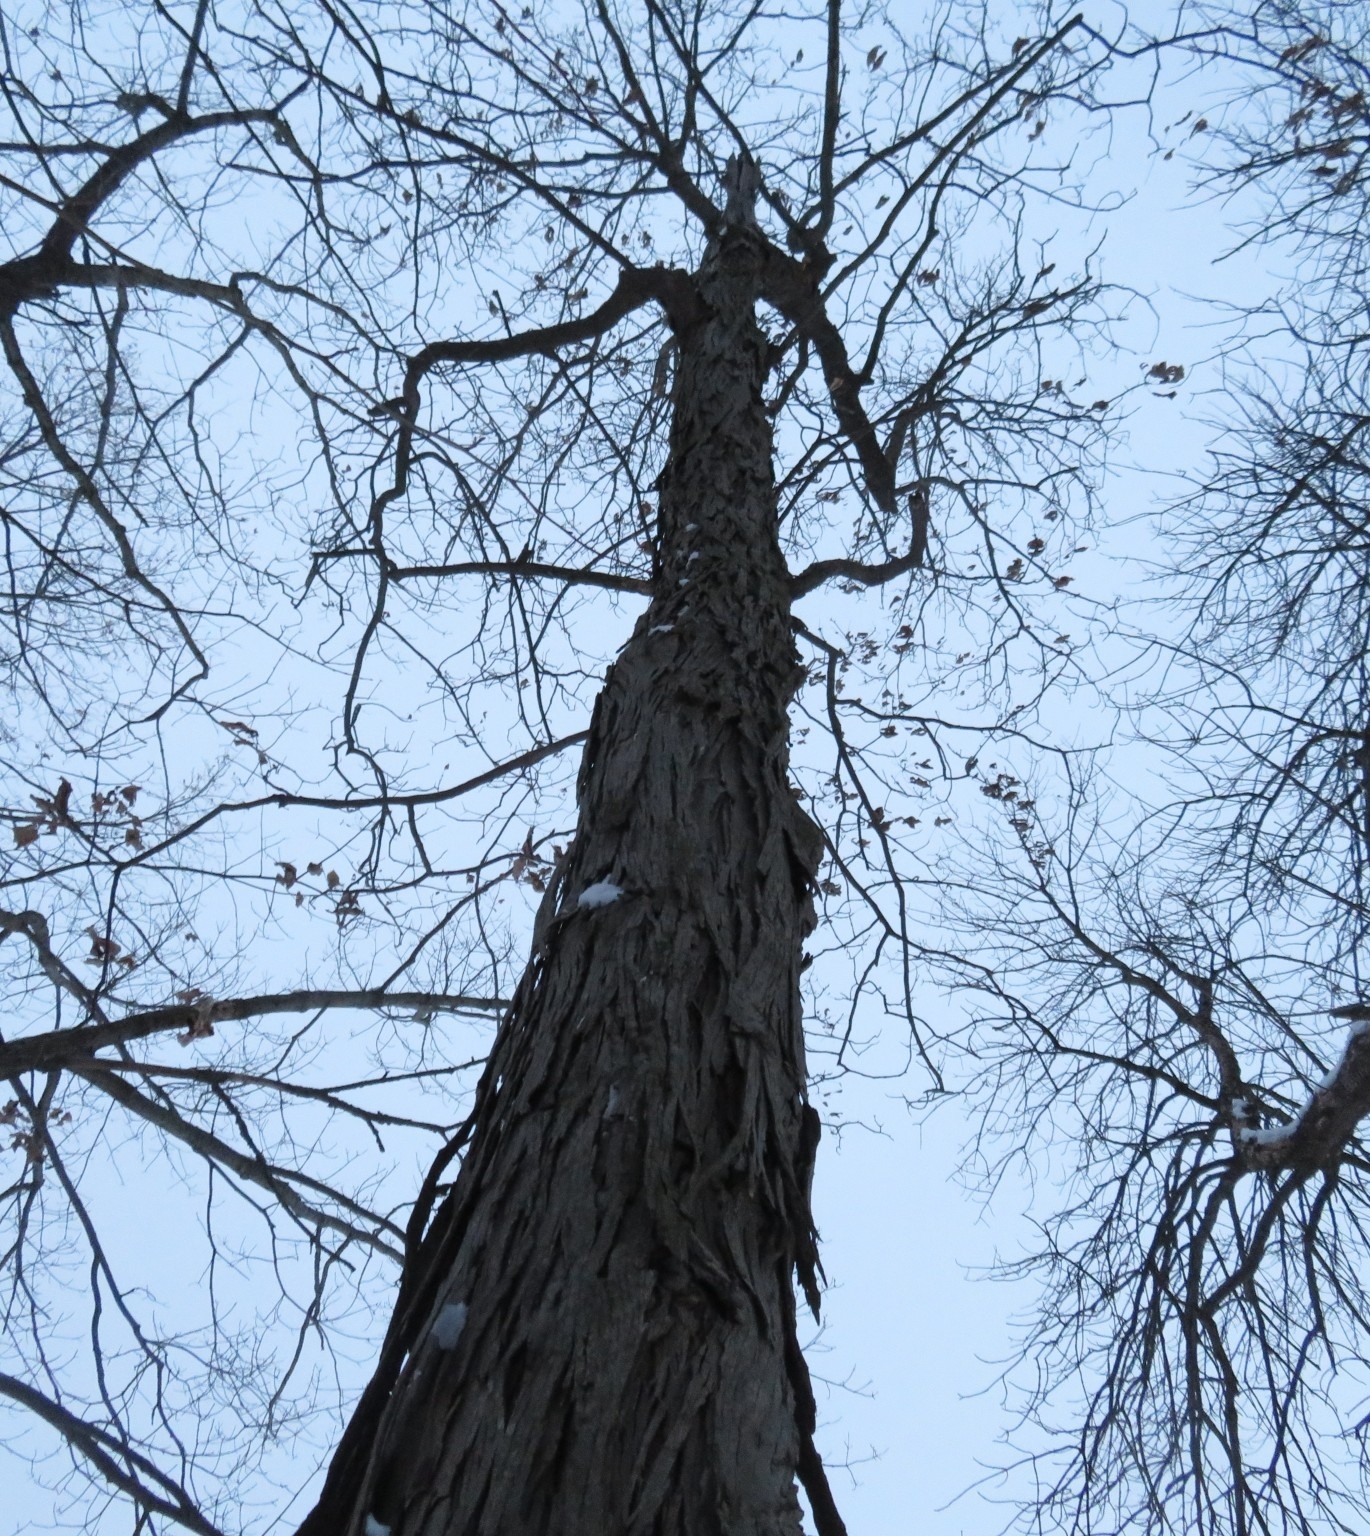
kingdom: Plantae
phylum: Tracheophyta
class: Magnoliopsida
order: Fagales
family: Juglandaceae
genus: Carya
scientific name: Carya ovata
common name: Shagbark hickory
